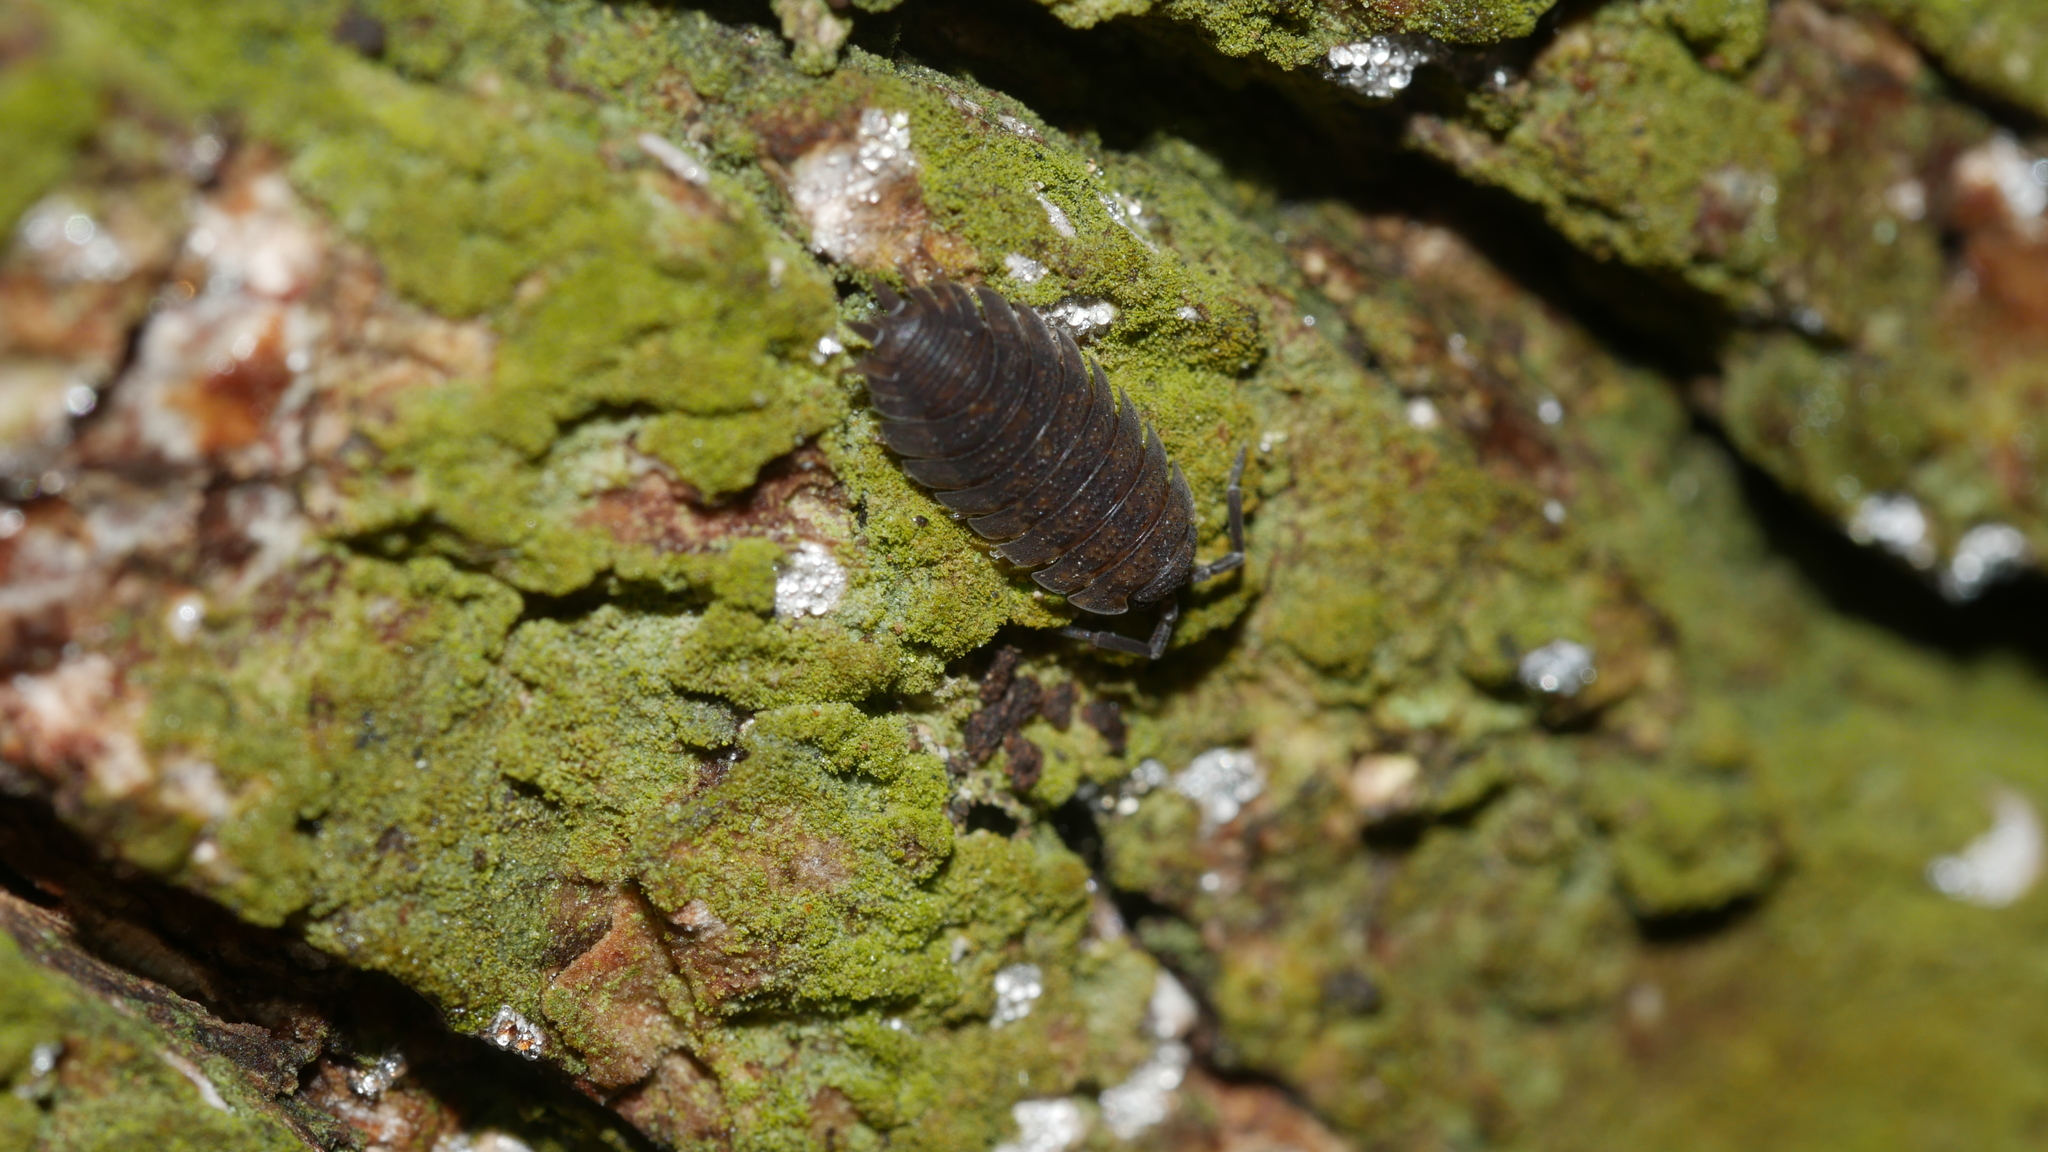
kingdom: Animalia
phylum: Arthropoda
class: Malacostraca
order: Isopoda
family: Porcellionidae
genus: Porcellio
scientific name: Porcellio scaber
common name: Common rough woodlouse
